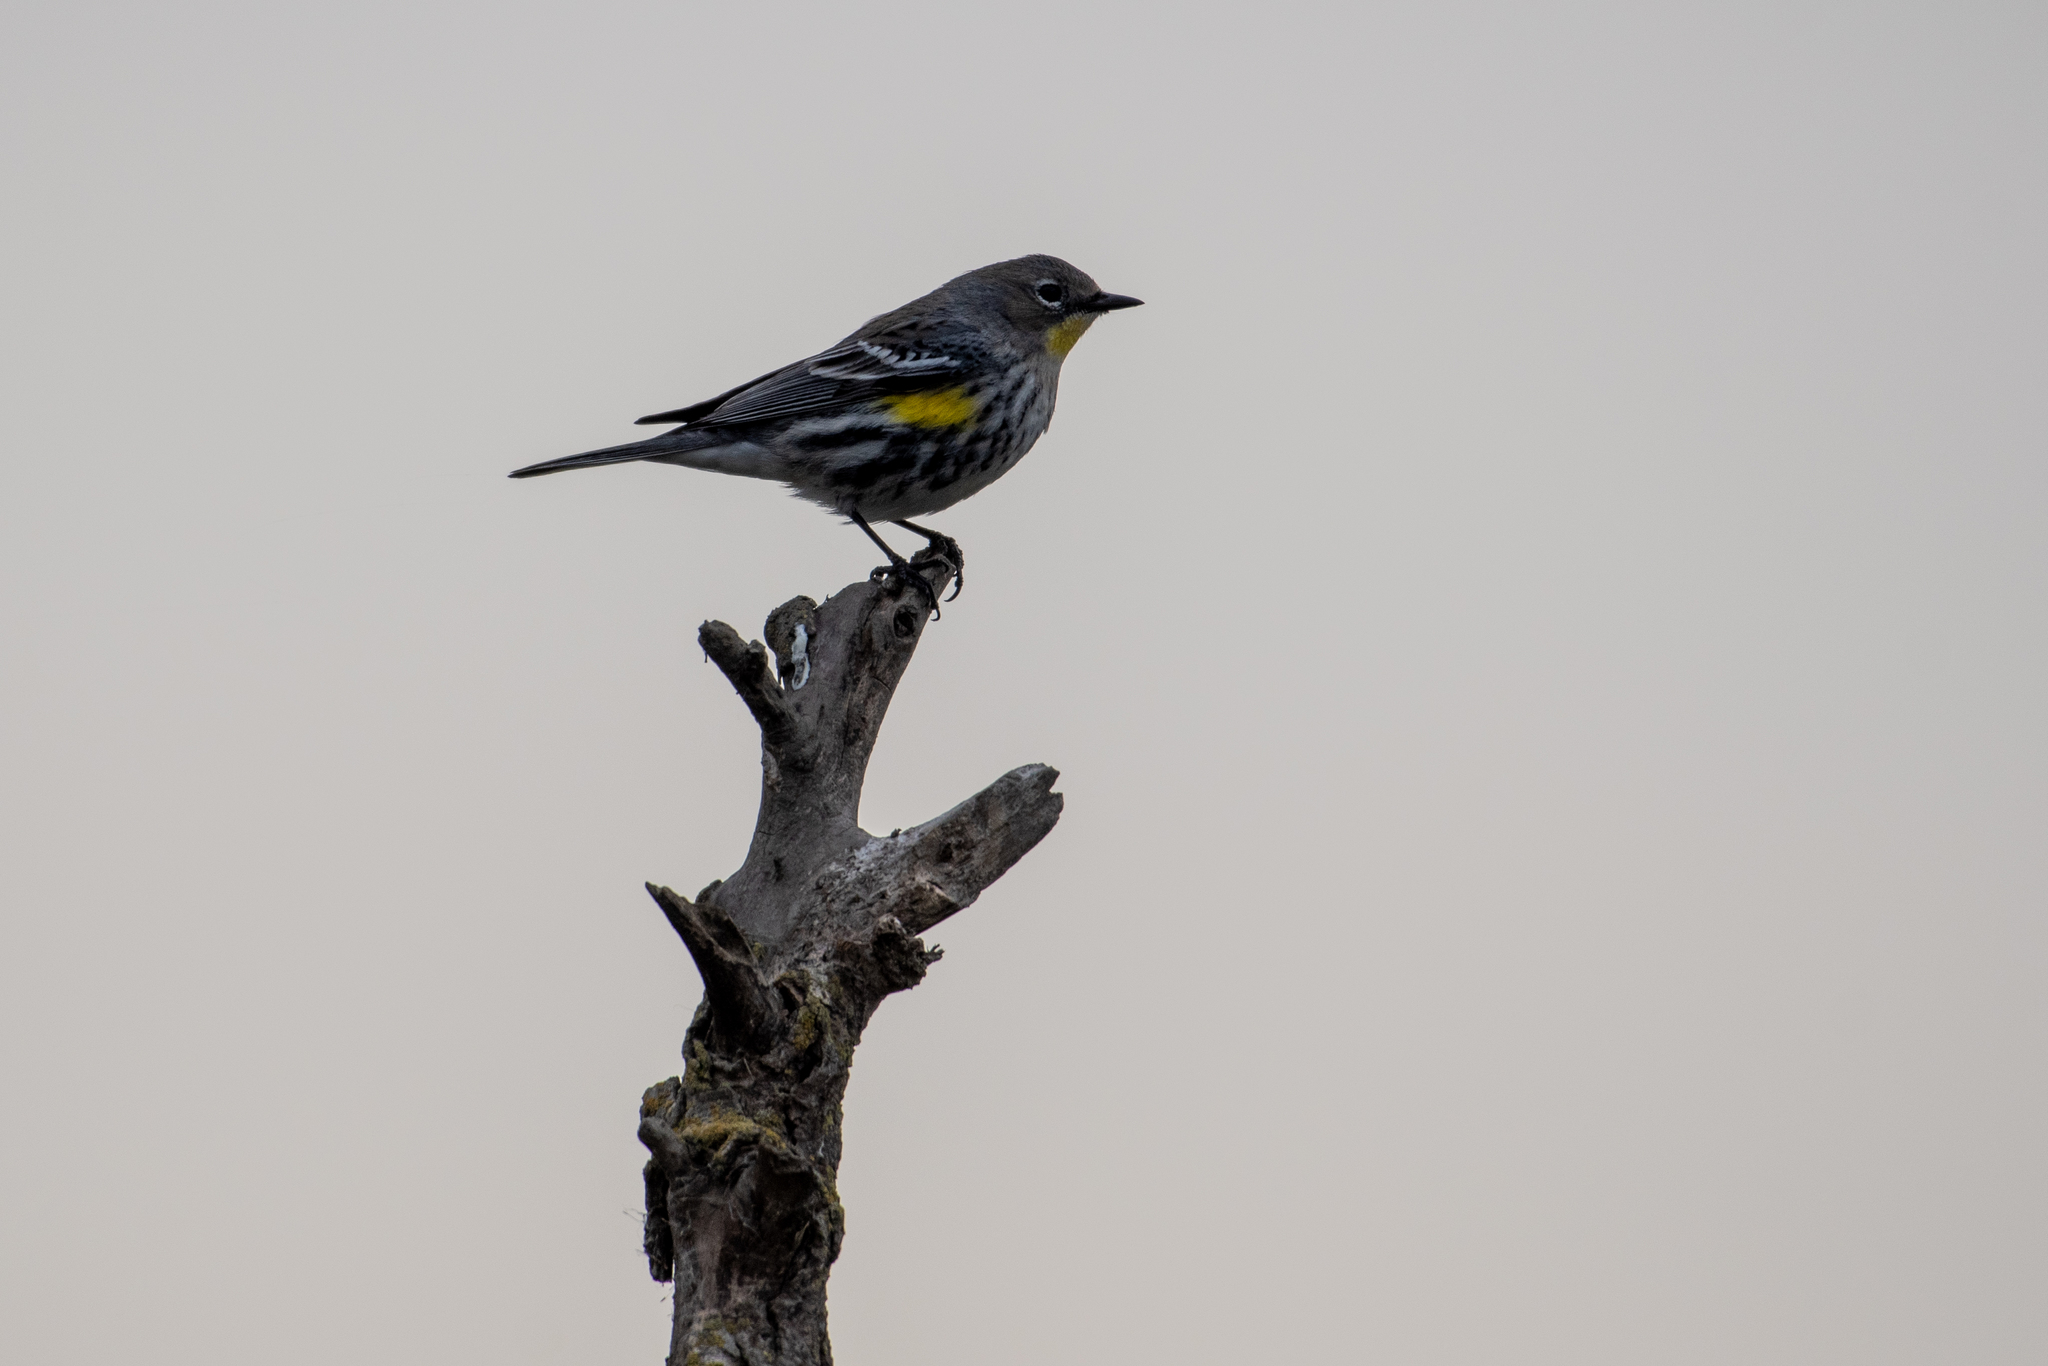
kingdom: Animalia
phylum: Chordata
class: Aves
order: Passeriformes
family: Parulidae
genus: Setophaga
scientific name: Setophaga coronata
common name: Myrtle warbler
